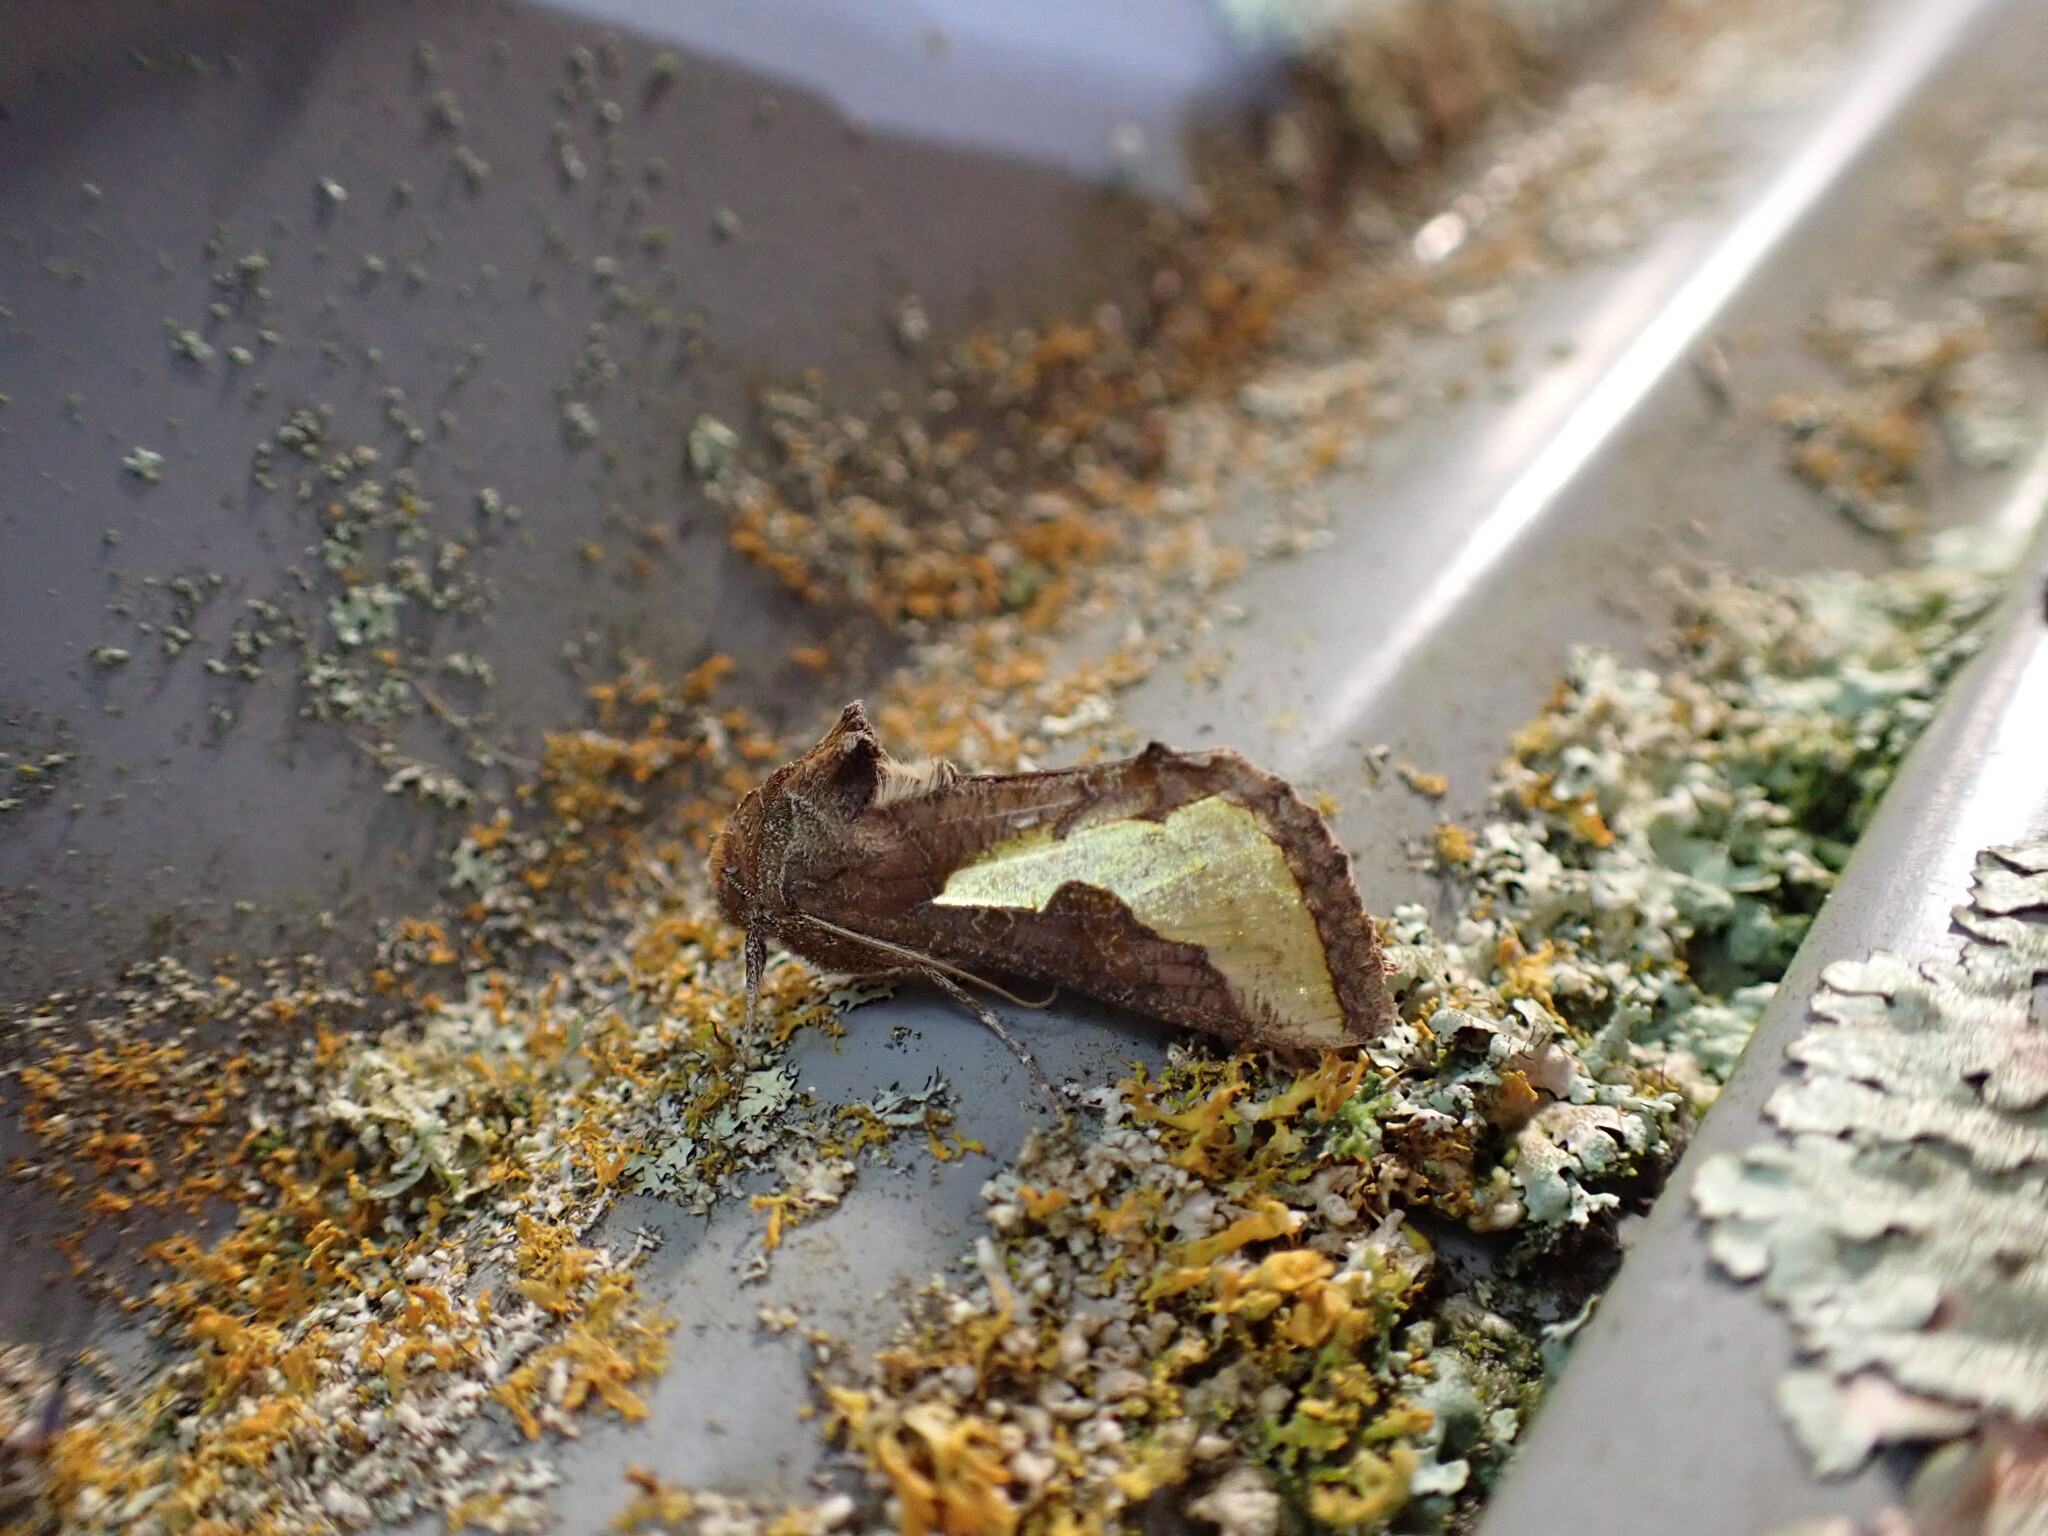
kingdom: Animalia
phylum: Arthropoda
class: Insecta
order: Lepidoptera
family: Noctuidae
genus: Thysanoplusia
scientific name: Thysanoplusia orichalcea
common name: Slender burnished brass, golden plusia
